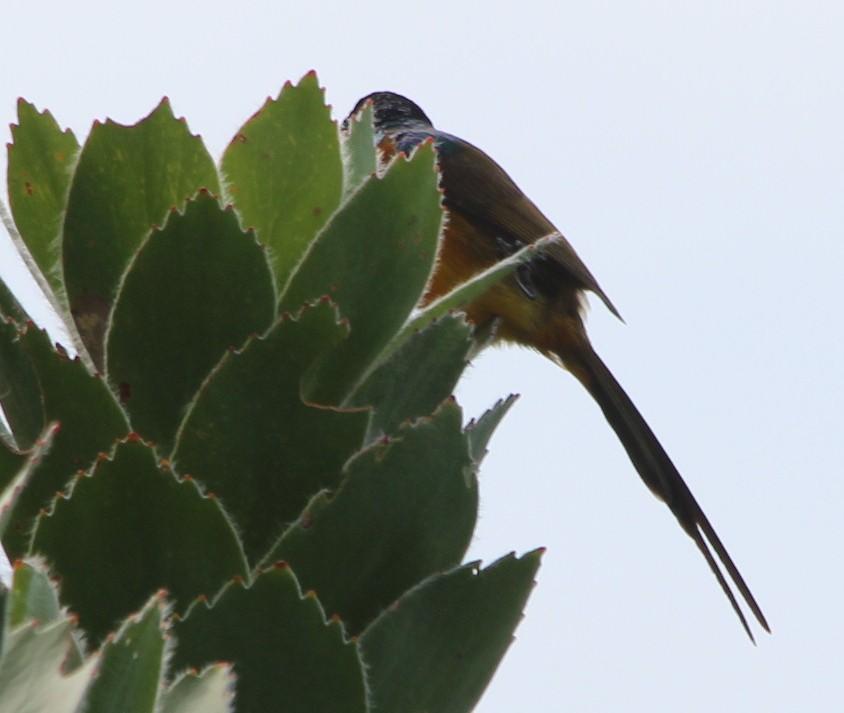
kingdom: Animalia
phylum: Chordata
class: Aves
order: Passeriformes
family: Nectariniidae
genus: Anthobaphes
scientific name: Anthobaphes violacea
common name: Orange-breasted sunbird
